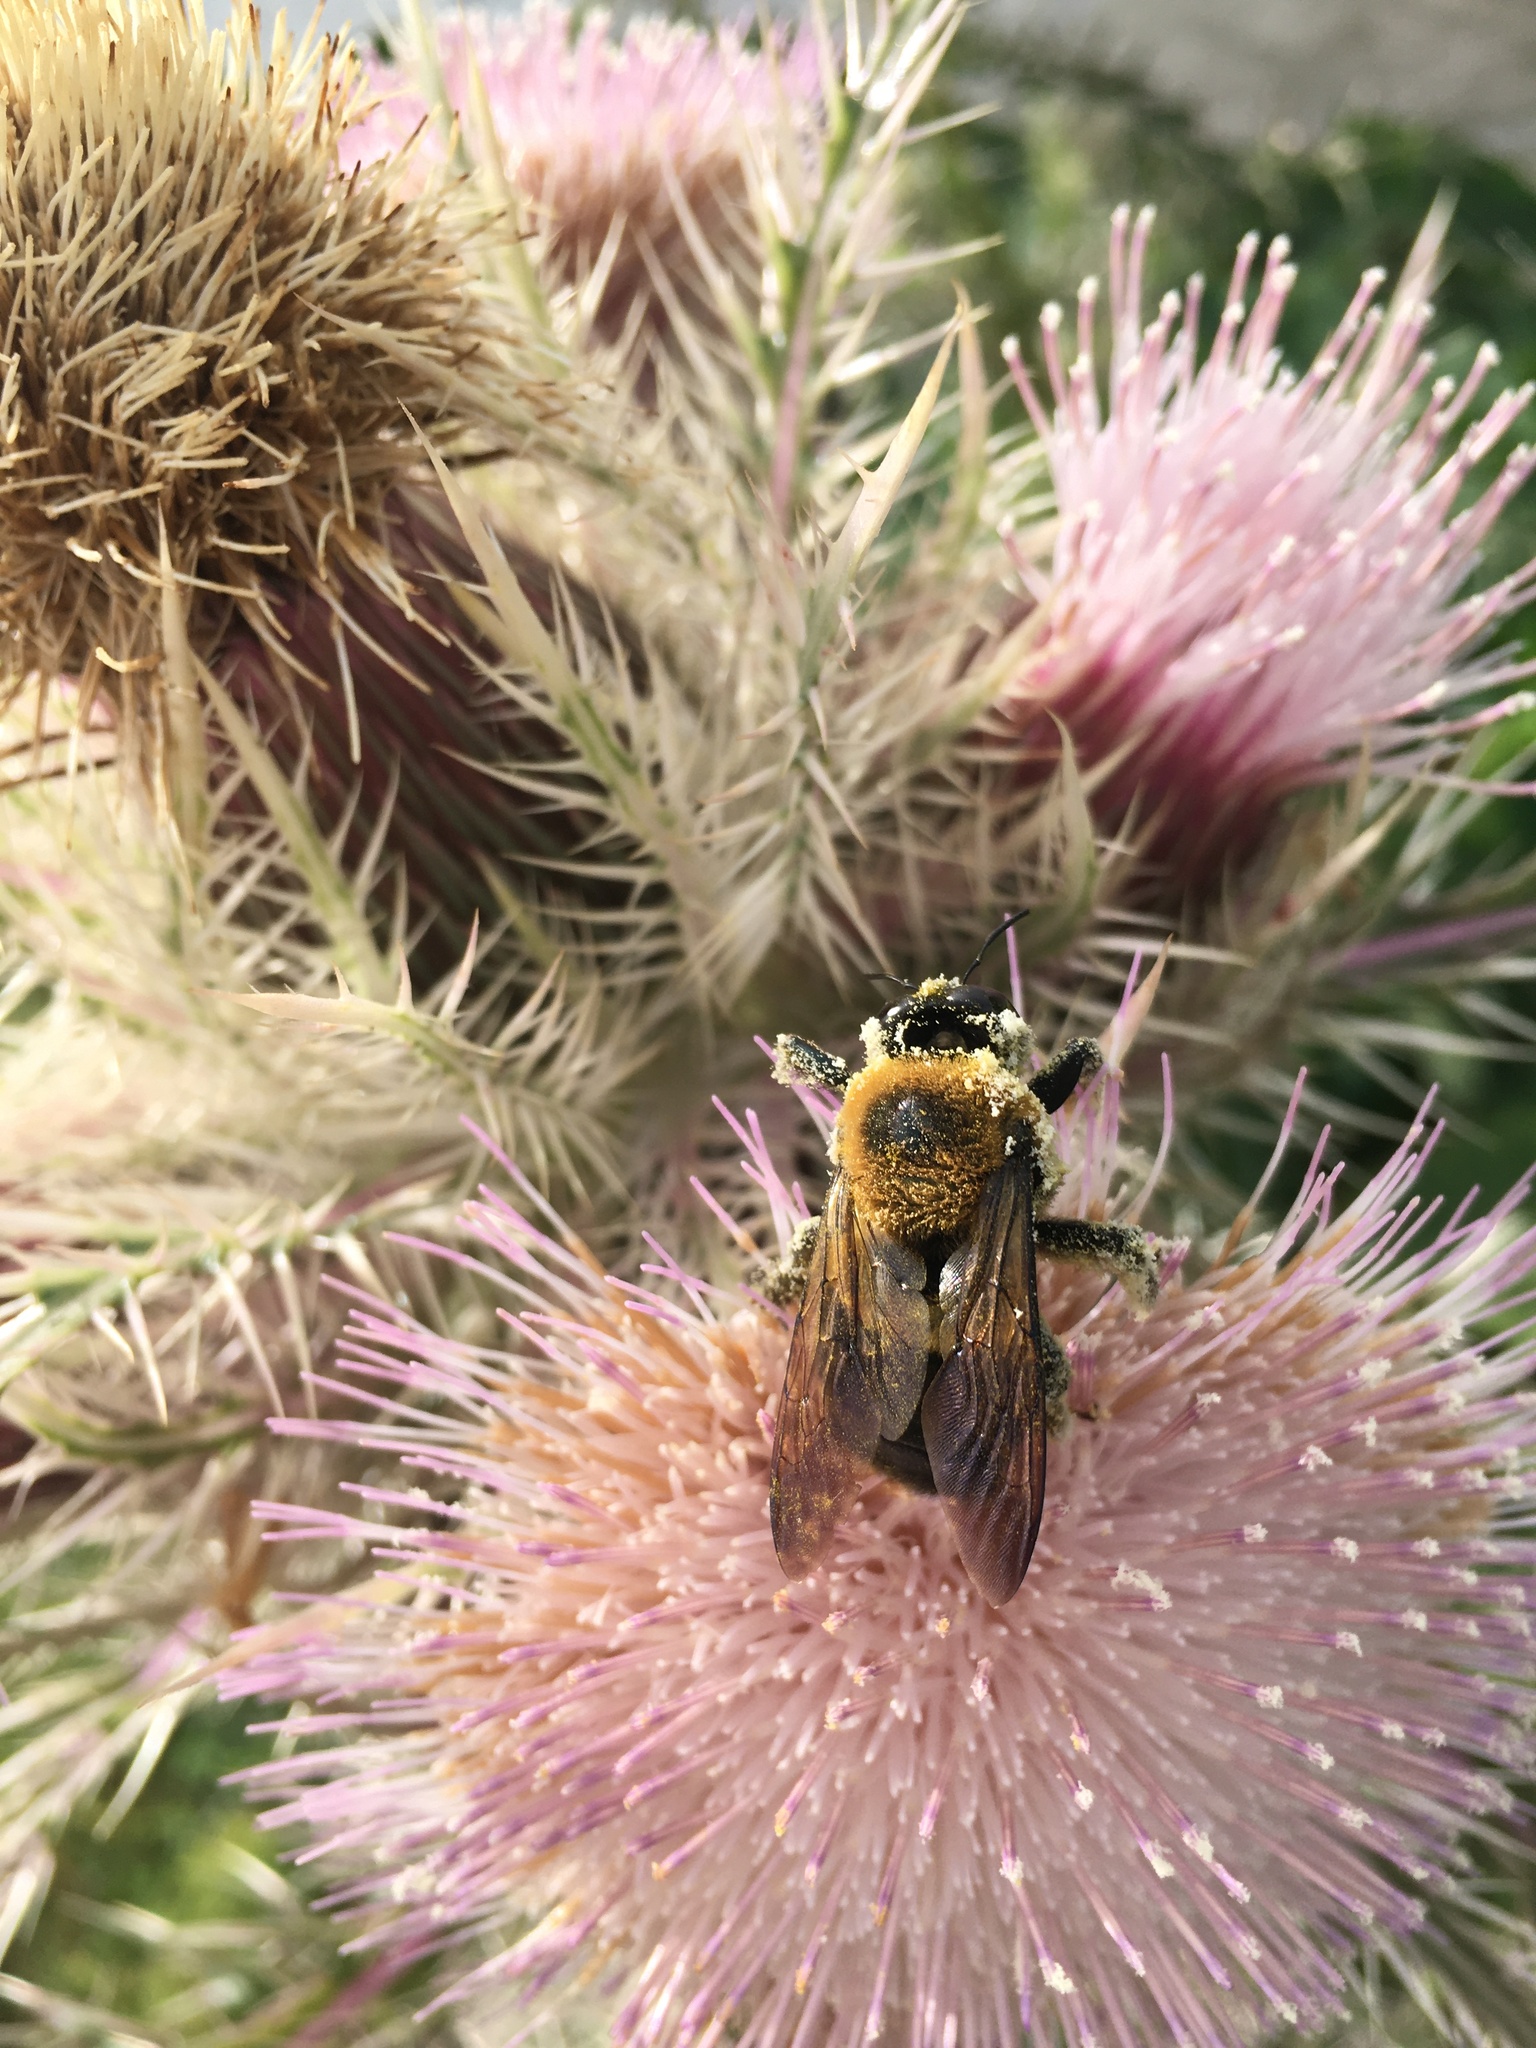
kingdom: Animalia
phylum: Arthropoda
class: Insecta
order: Hymenoptera
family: Apidae
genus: Xylocopa
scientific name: Xylocopa virginica
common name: Carpenter bee
